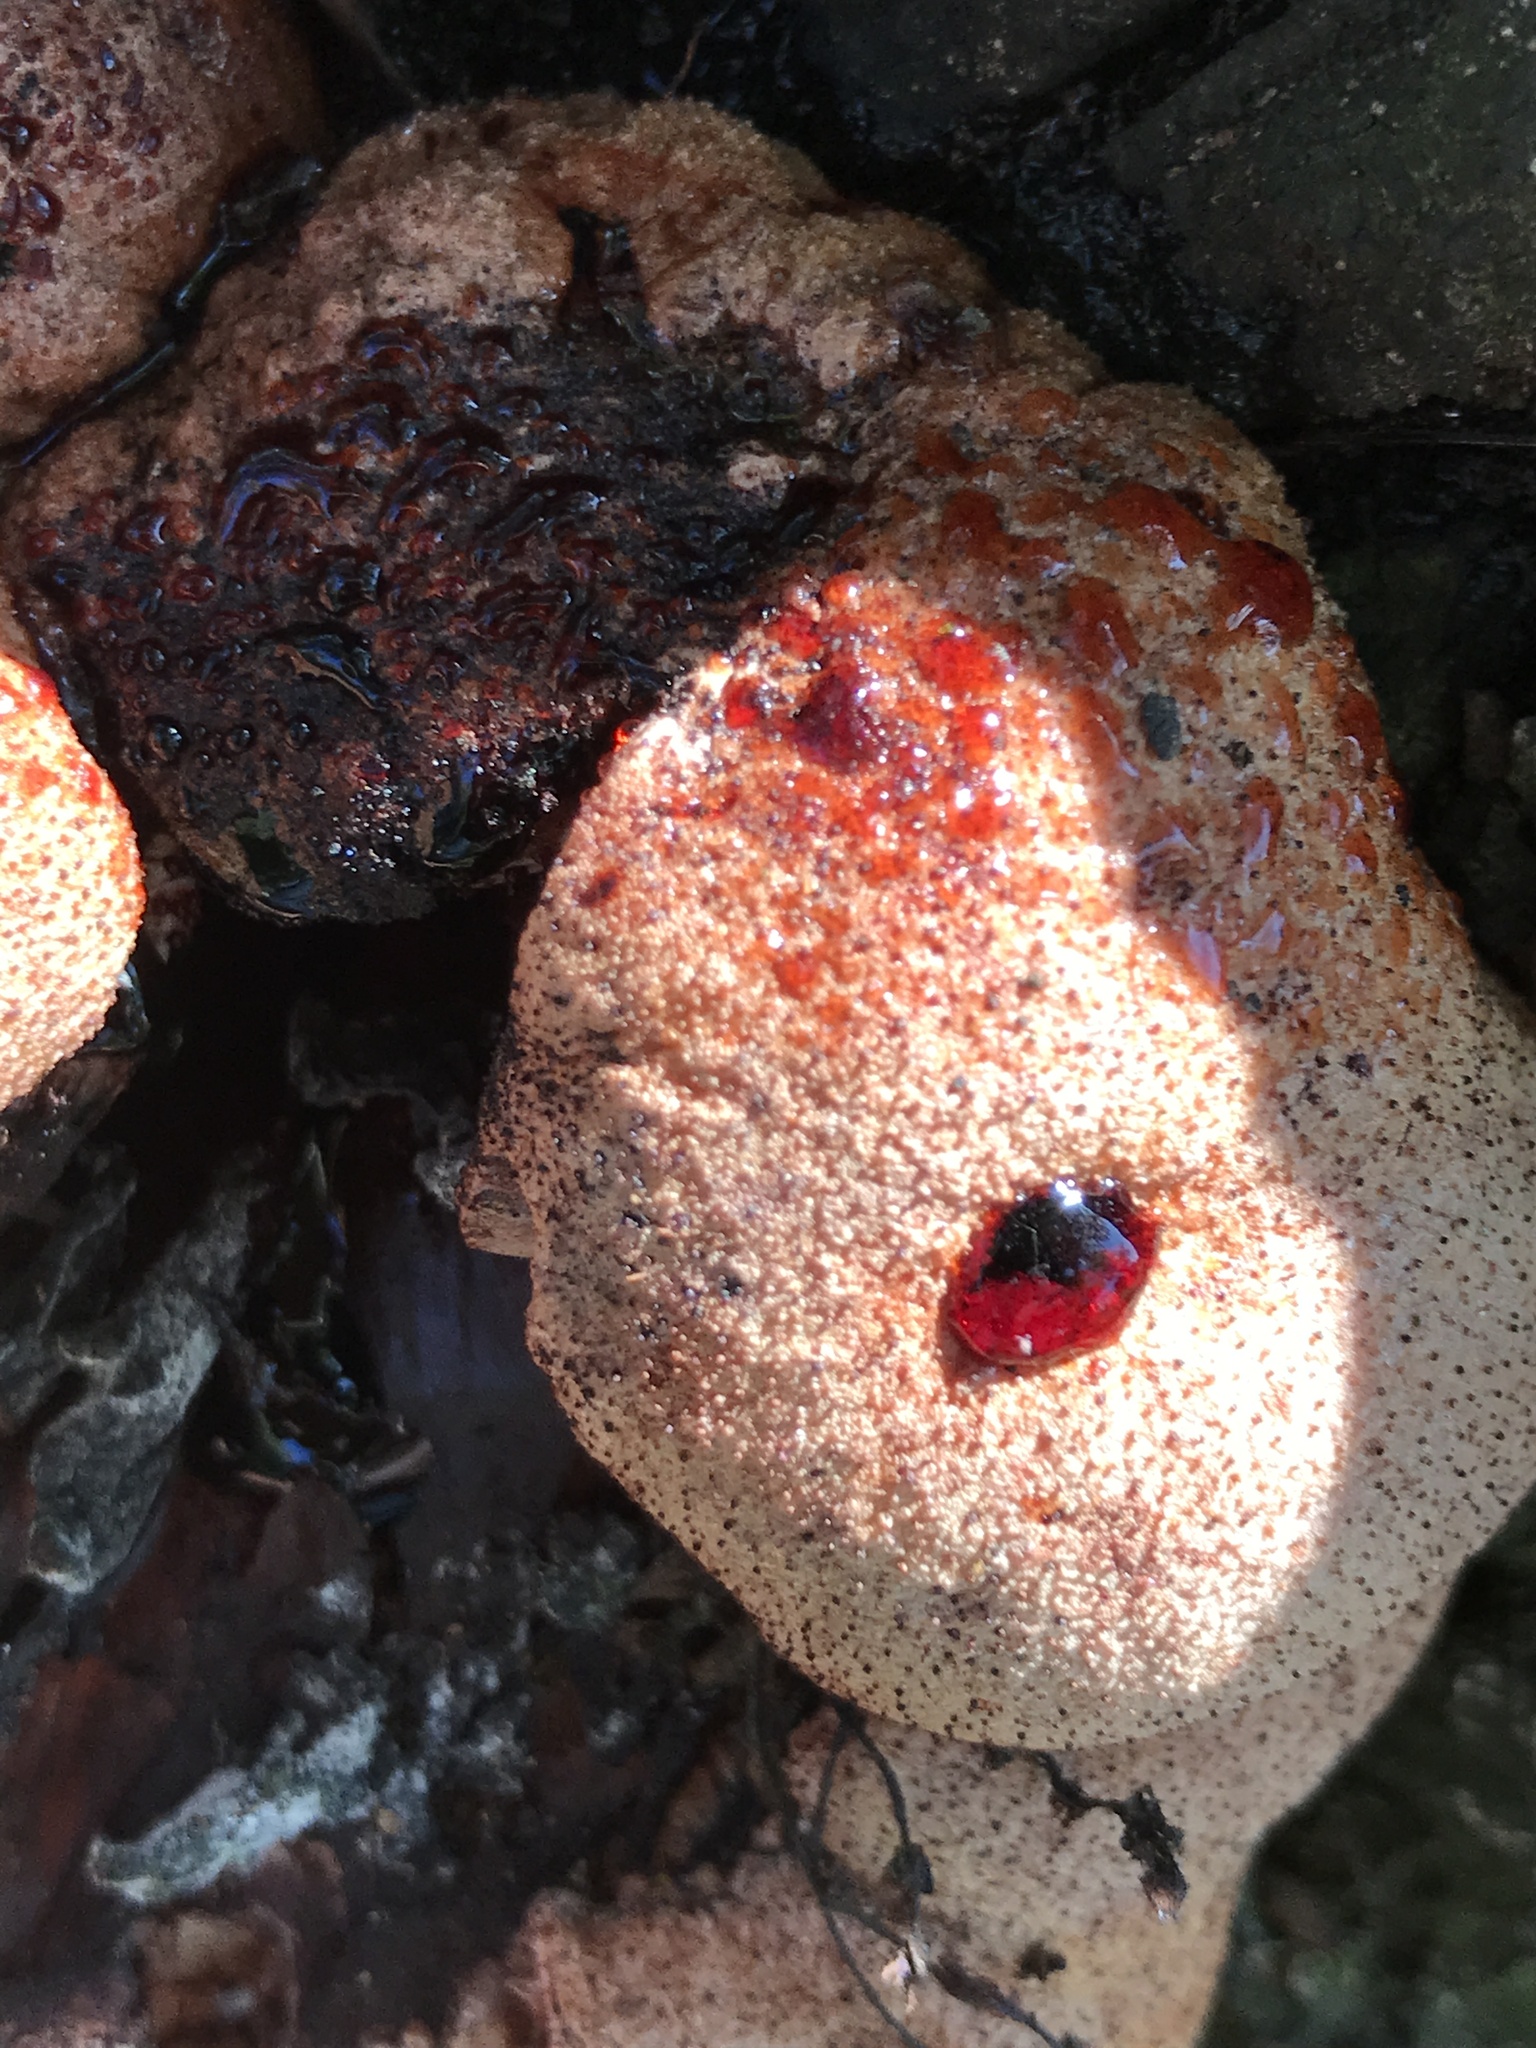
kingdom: Fungi
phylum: Basidiomycota
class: Agaricomycetes
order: Agaricales
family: Fistulinaceae
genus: Fistulina
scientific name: Fistulina hepatica
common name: Beef-steak fungus
